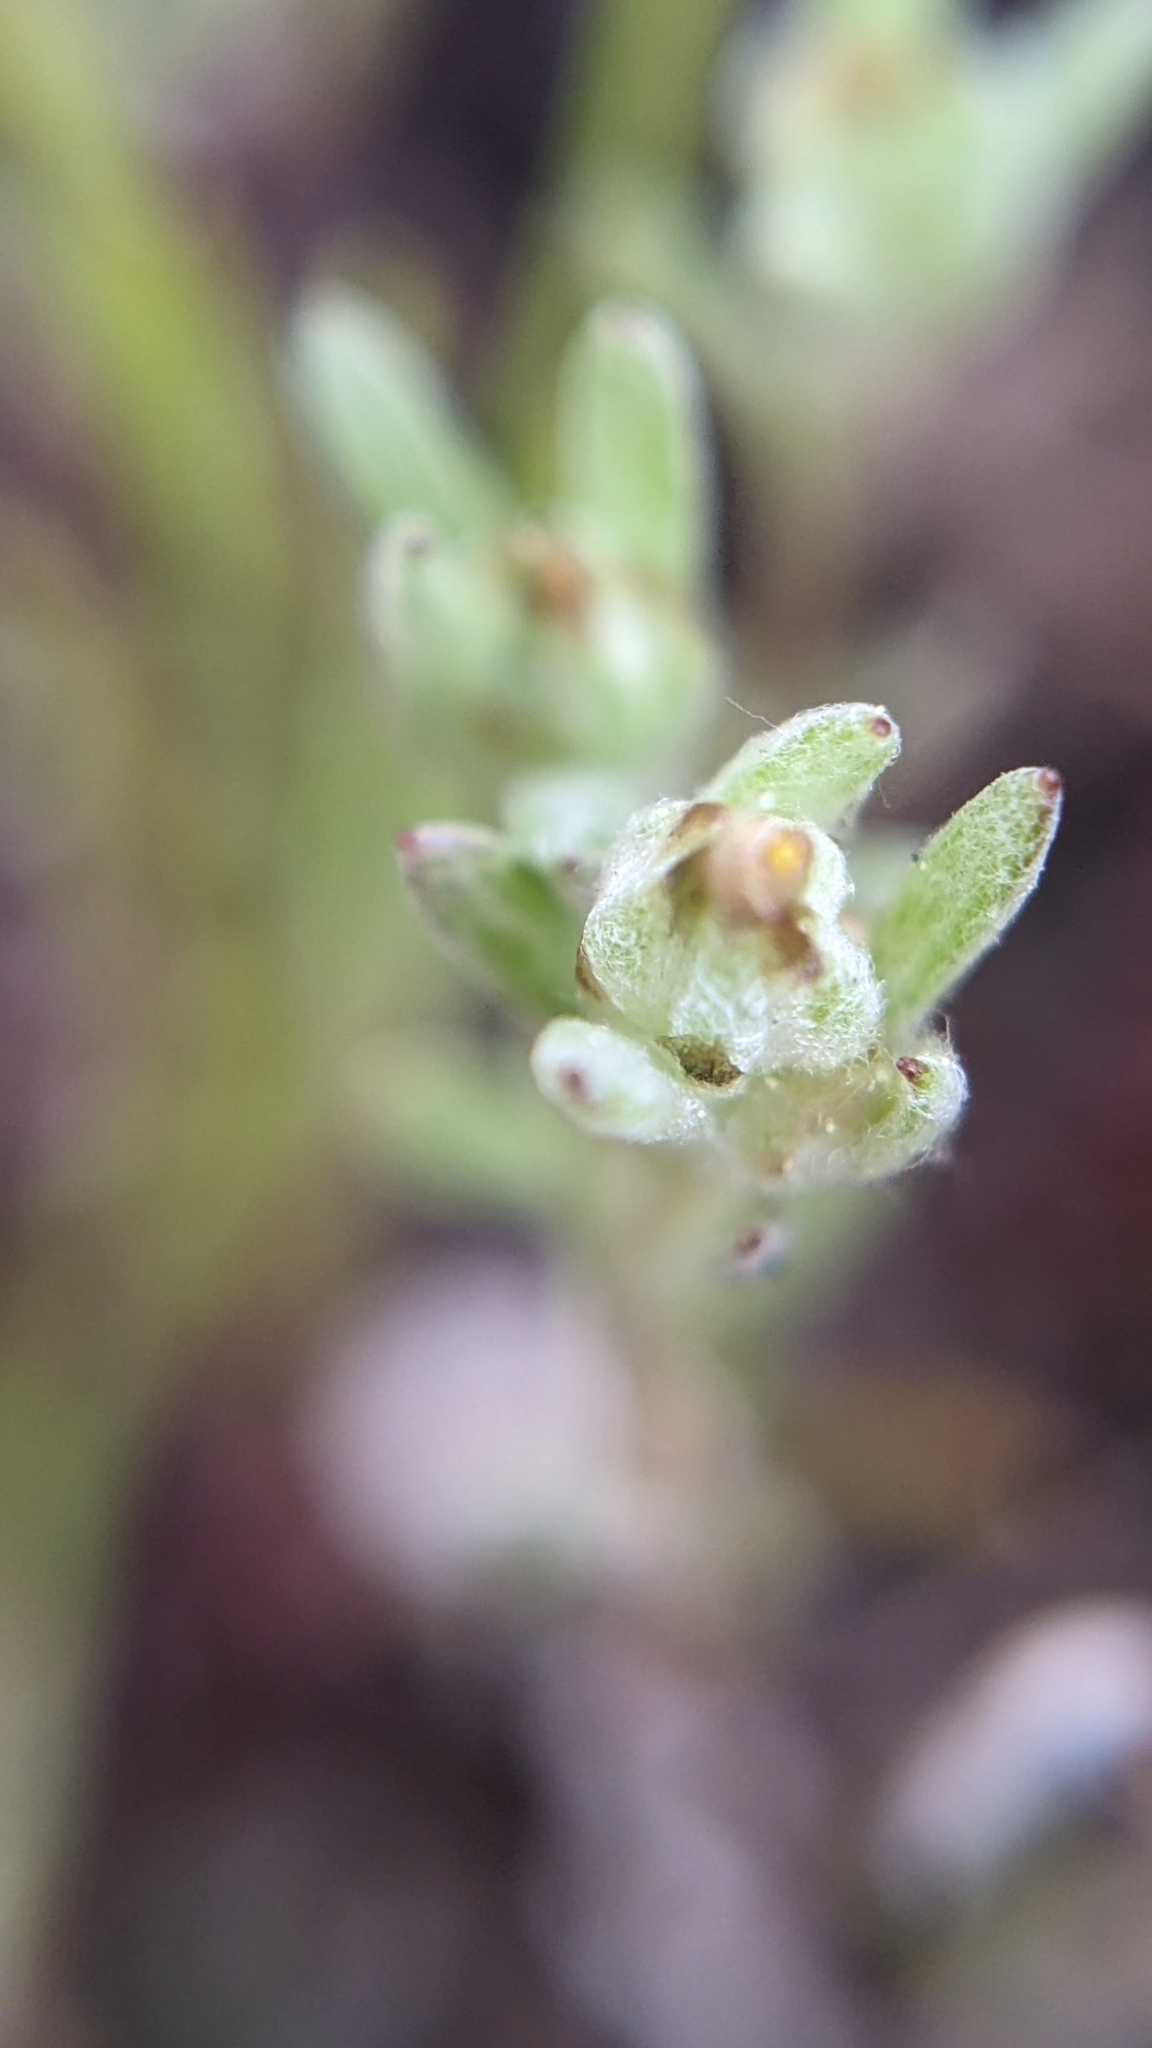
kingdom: Plantae
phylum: Tracheophyta
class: Magnoliopsida
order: Asterales
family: Asteraceae
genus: Logfia
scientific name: Logfia californica
